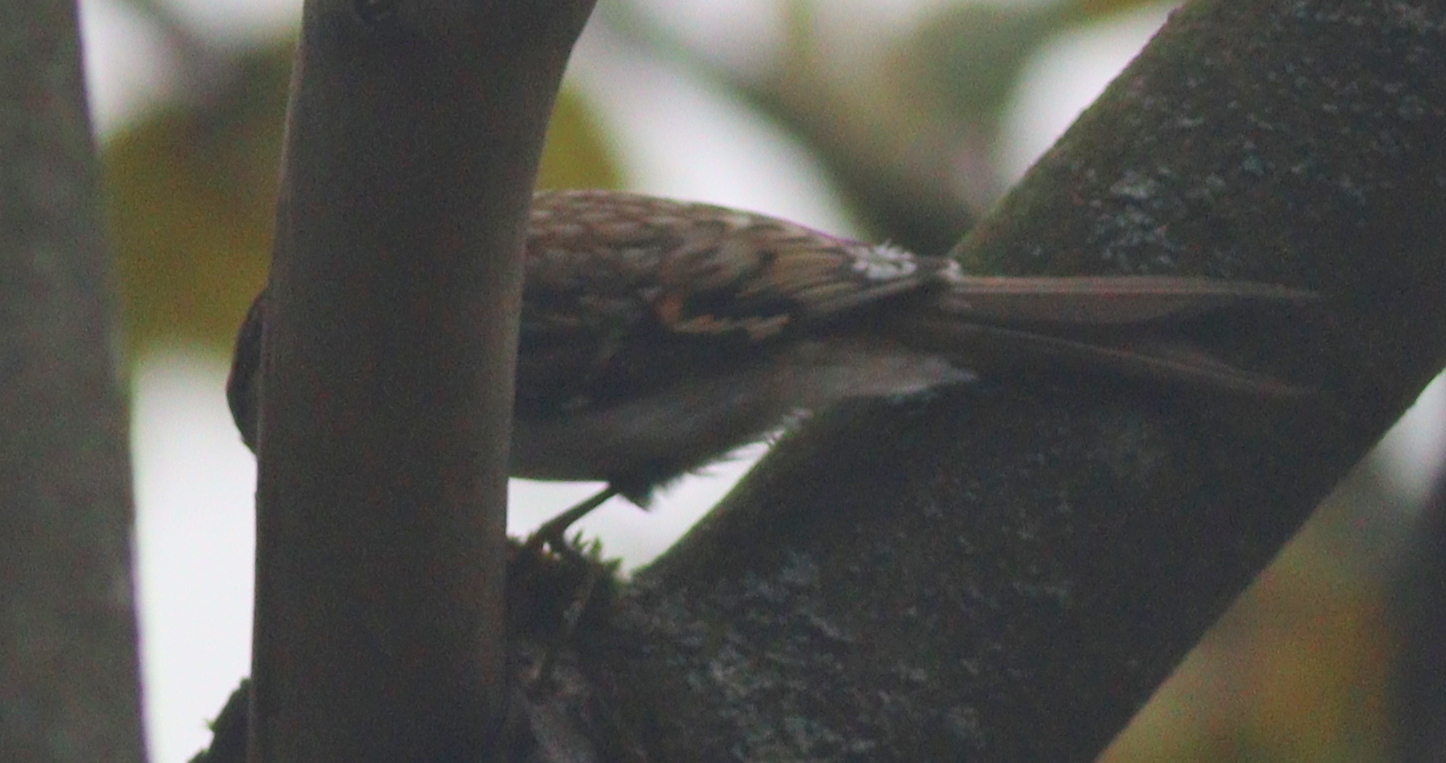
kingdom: Animalia
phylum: Chordata
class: Aves
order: Passeriformes
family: Certhiidae
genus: Certhia
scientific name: Certhia familiaris
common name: Eurasian treecreeper
